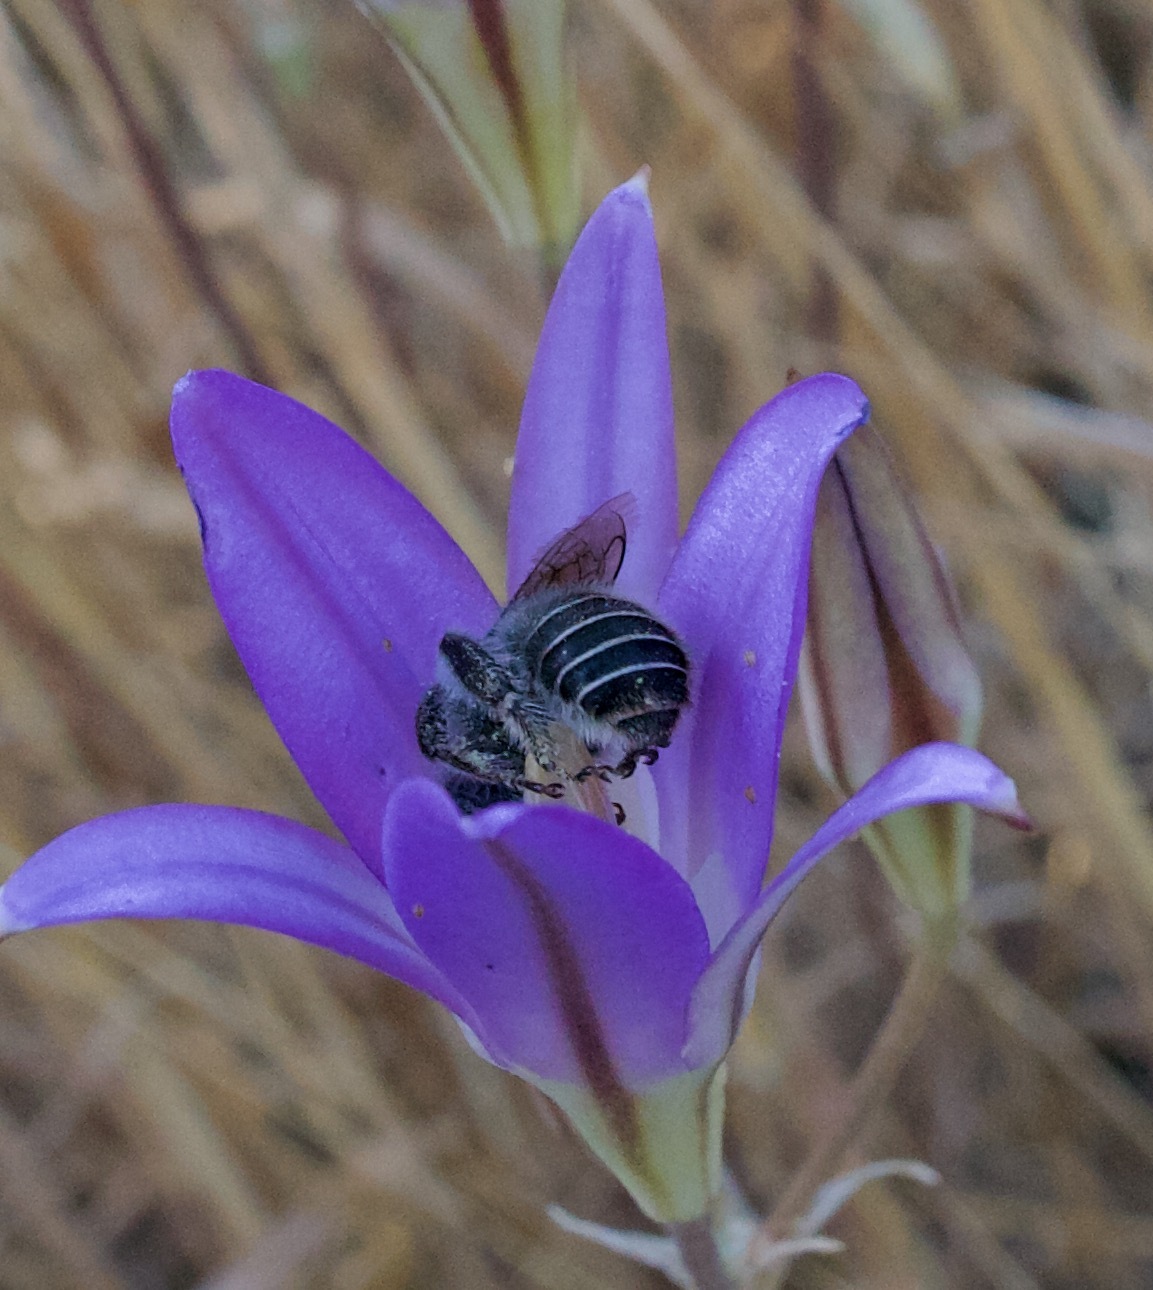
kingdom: Animalia
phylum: Arthropoda
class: Insecta
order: Hymenoptera
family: Apidae
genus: Diadasia
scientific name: Diadasia bituberculata
